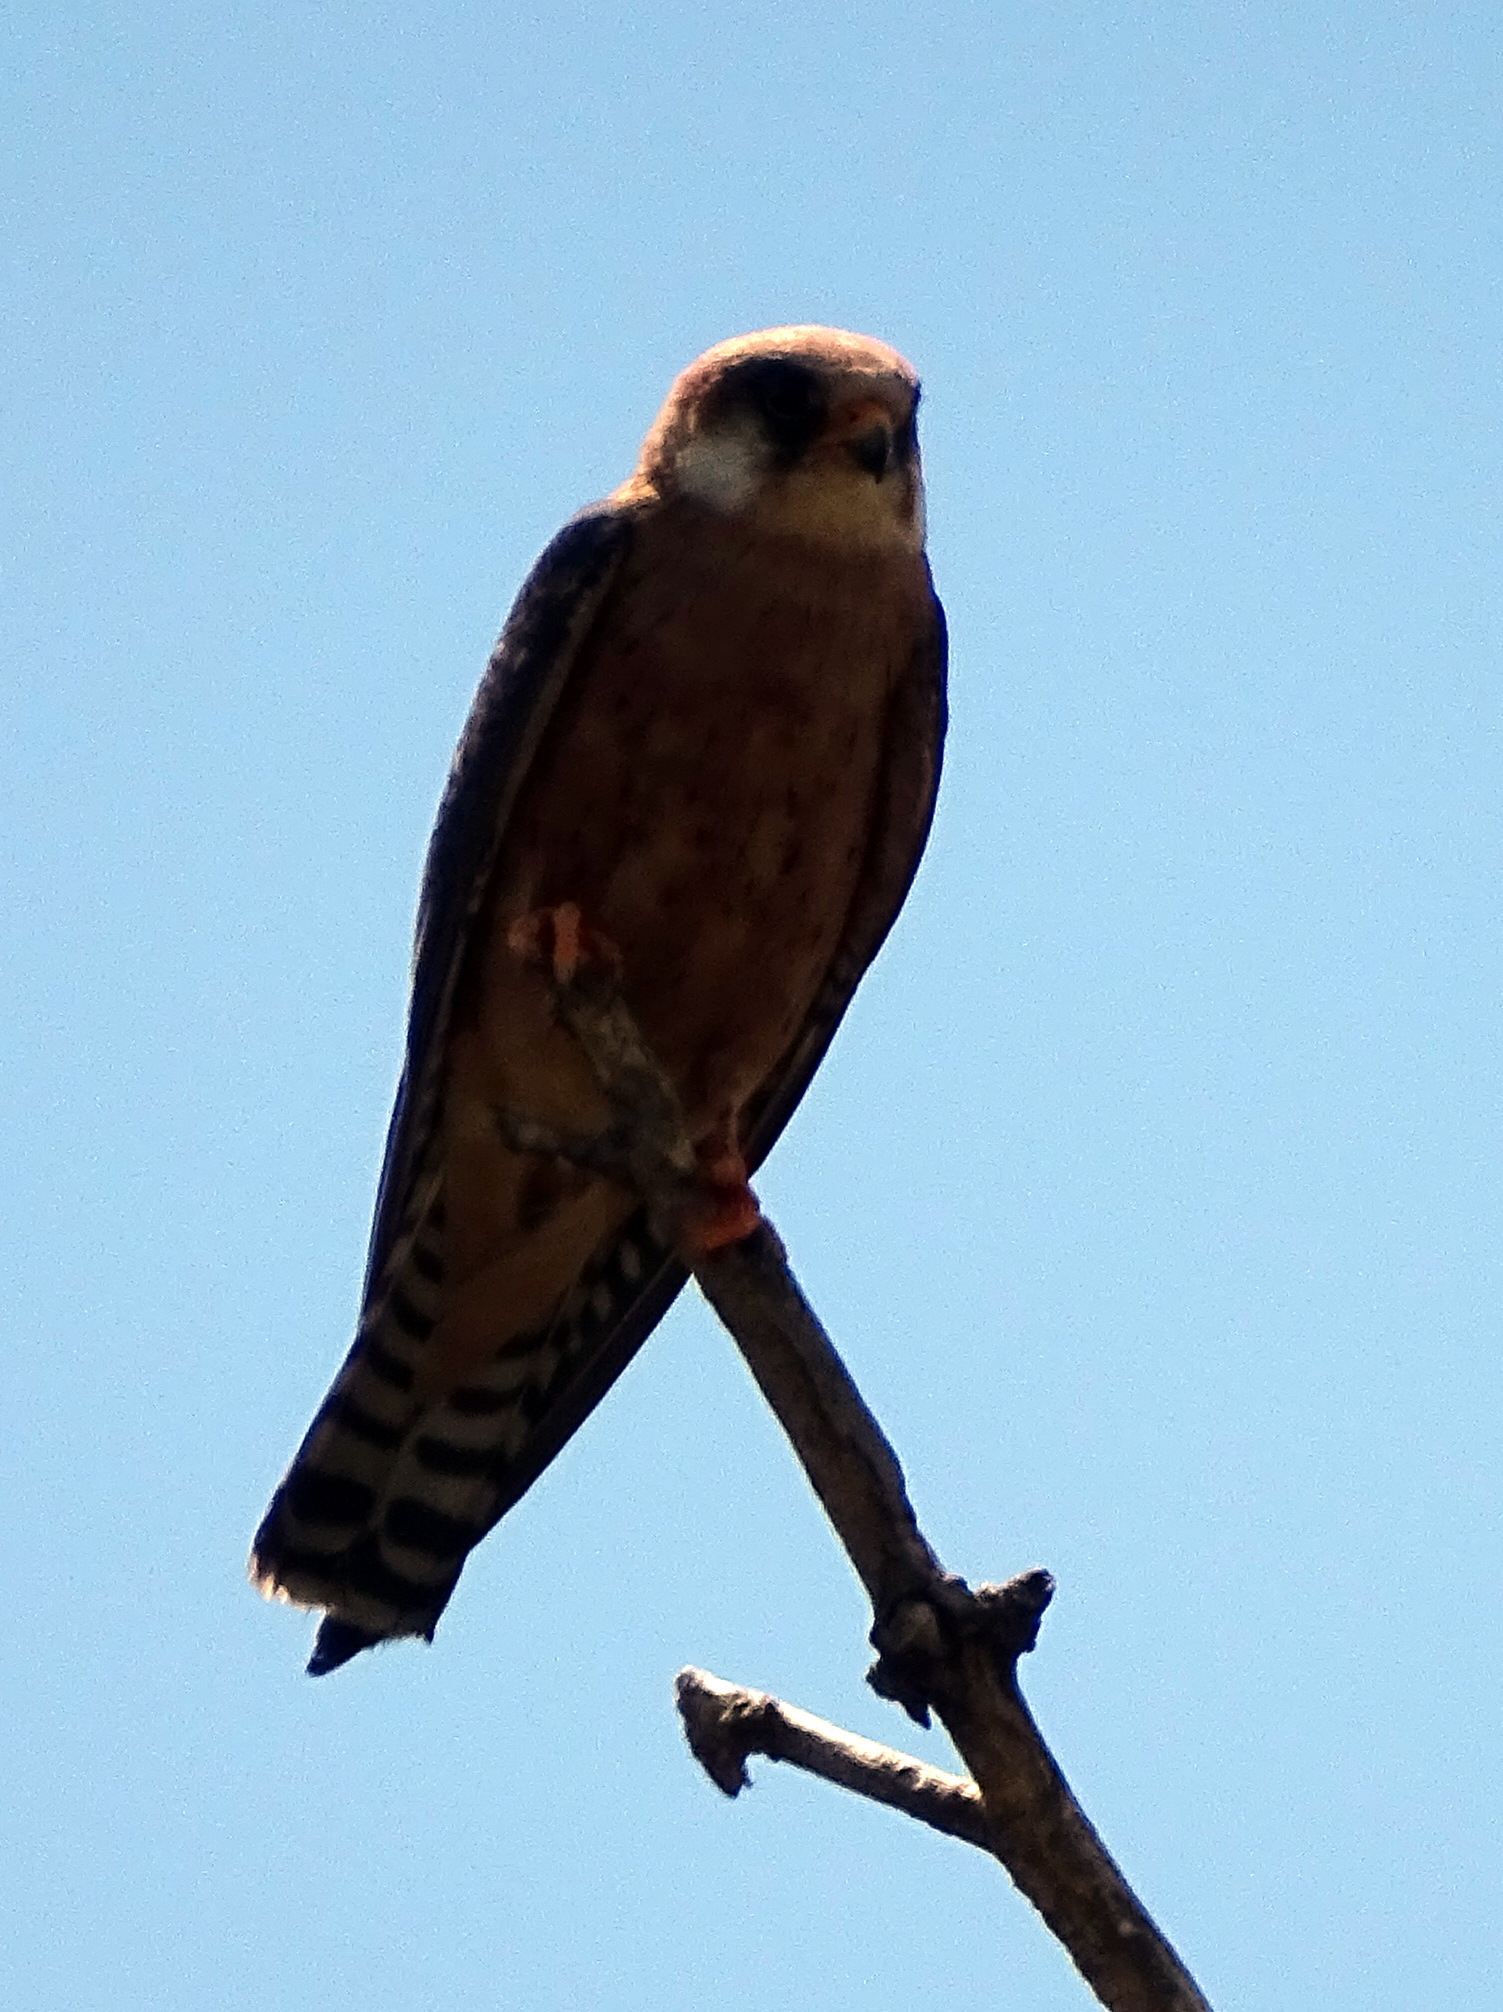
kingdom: Animalia
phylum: Chordata
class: Aves
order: Falconiformes
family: Falconidae
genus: Falco
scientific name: Falco vespertinus
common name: Red-footed falcon
